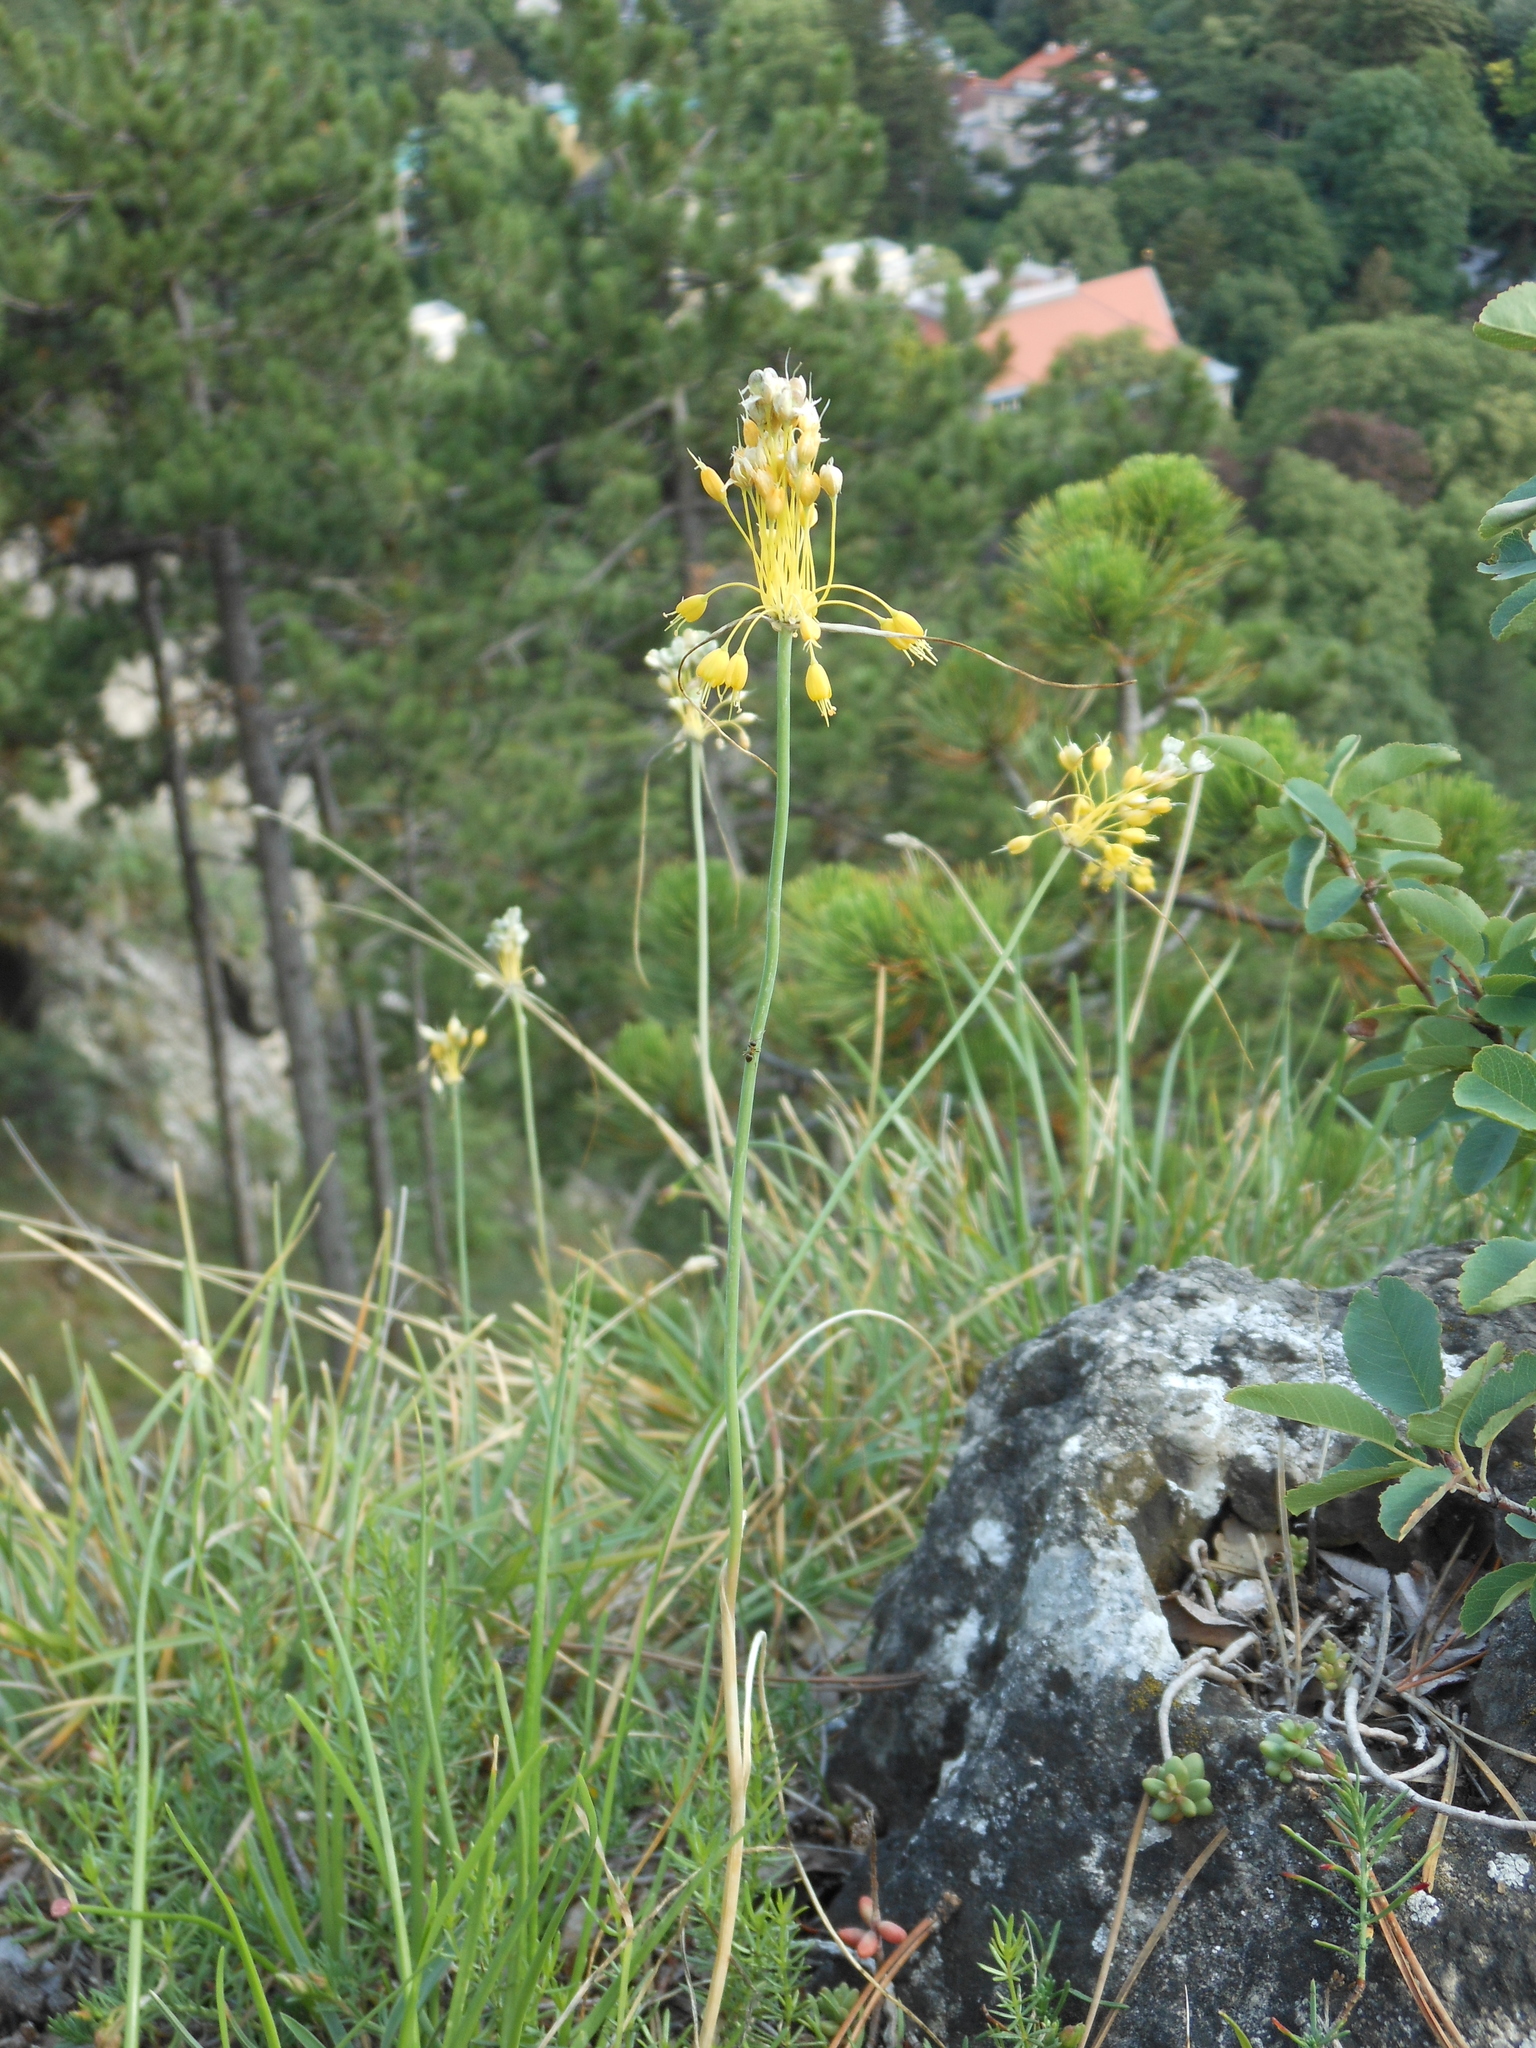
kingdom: Plantae
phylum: Tracheophyta
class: Liliopsida
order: Asparagales
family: Amaryllidaceae
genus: Allium
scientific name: Allium flavum
